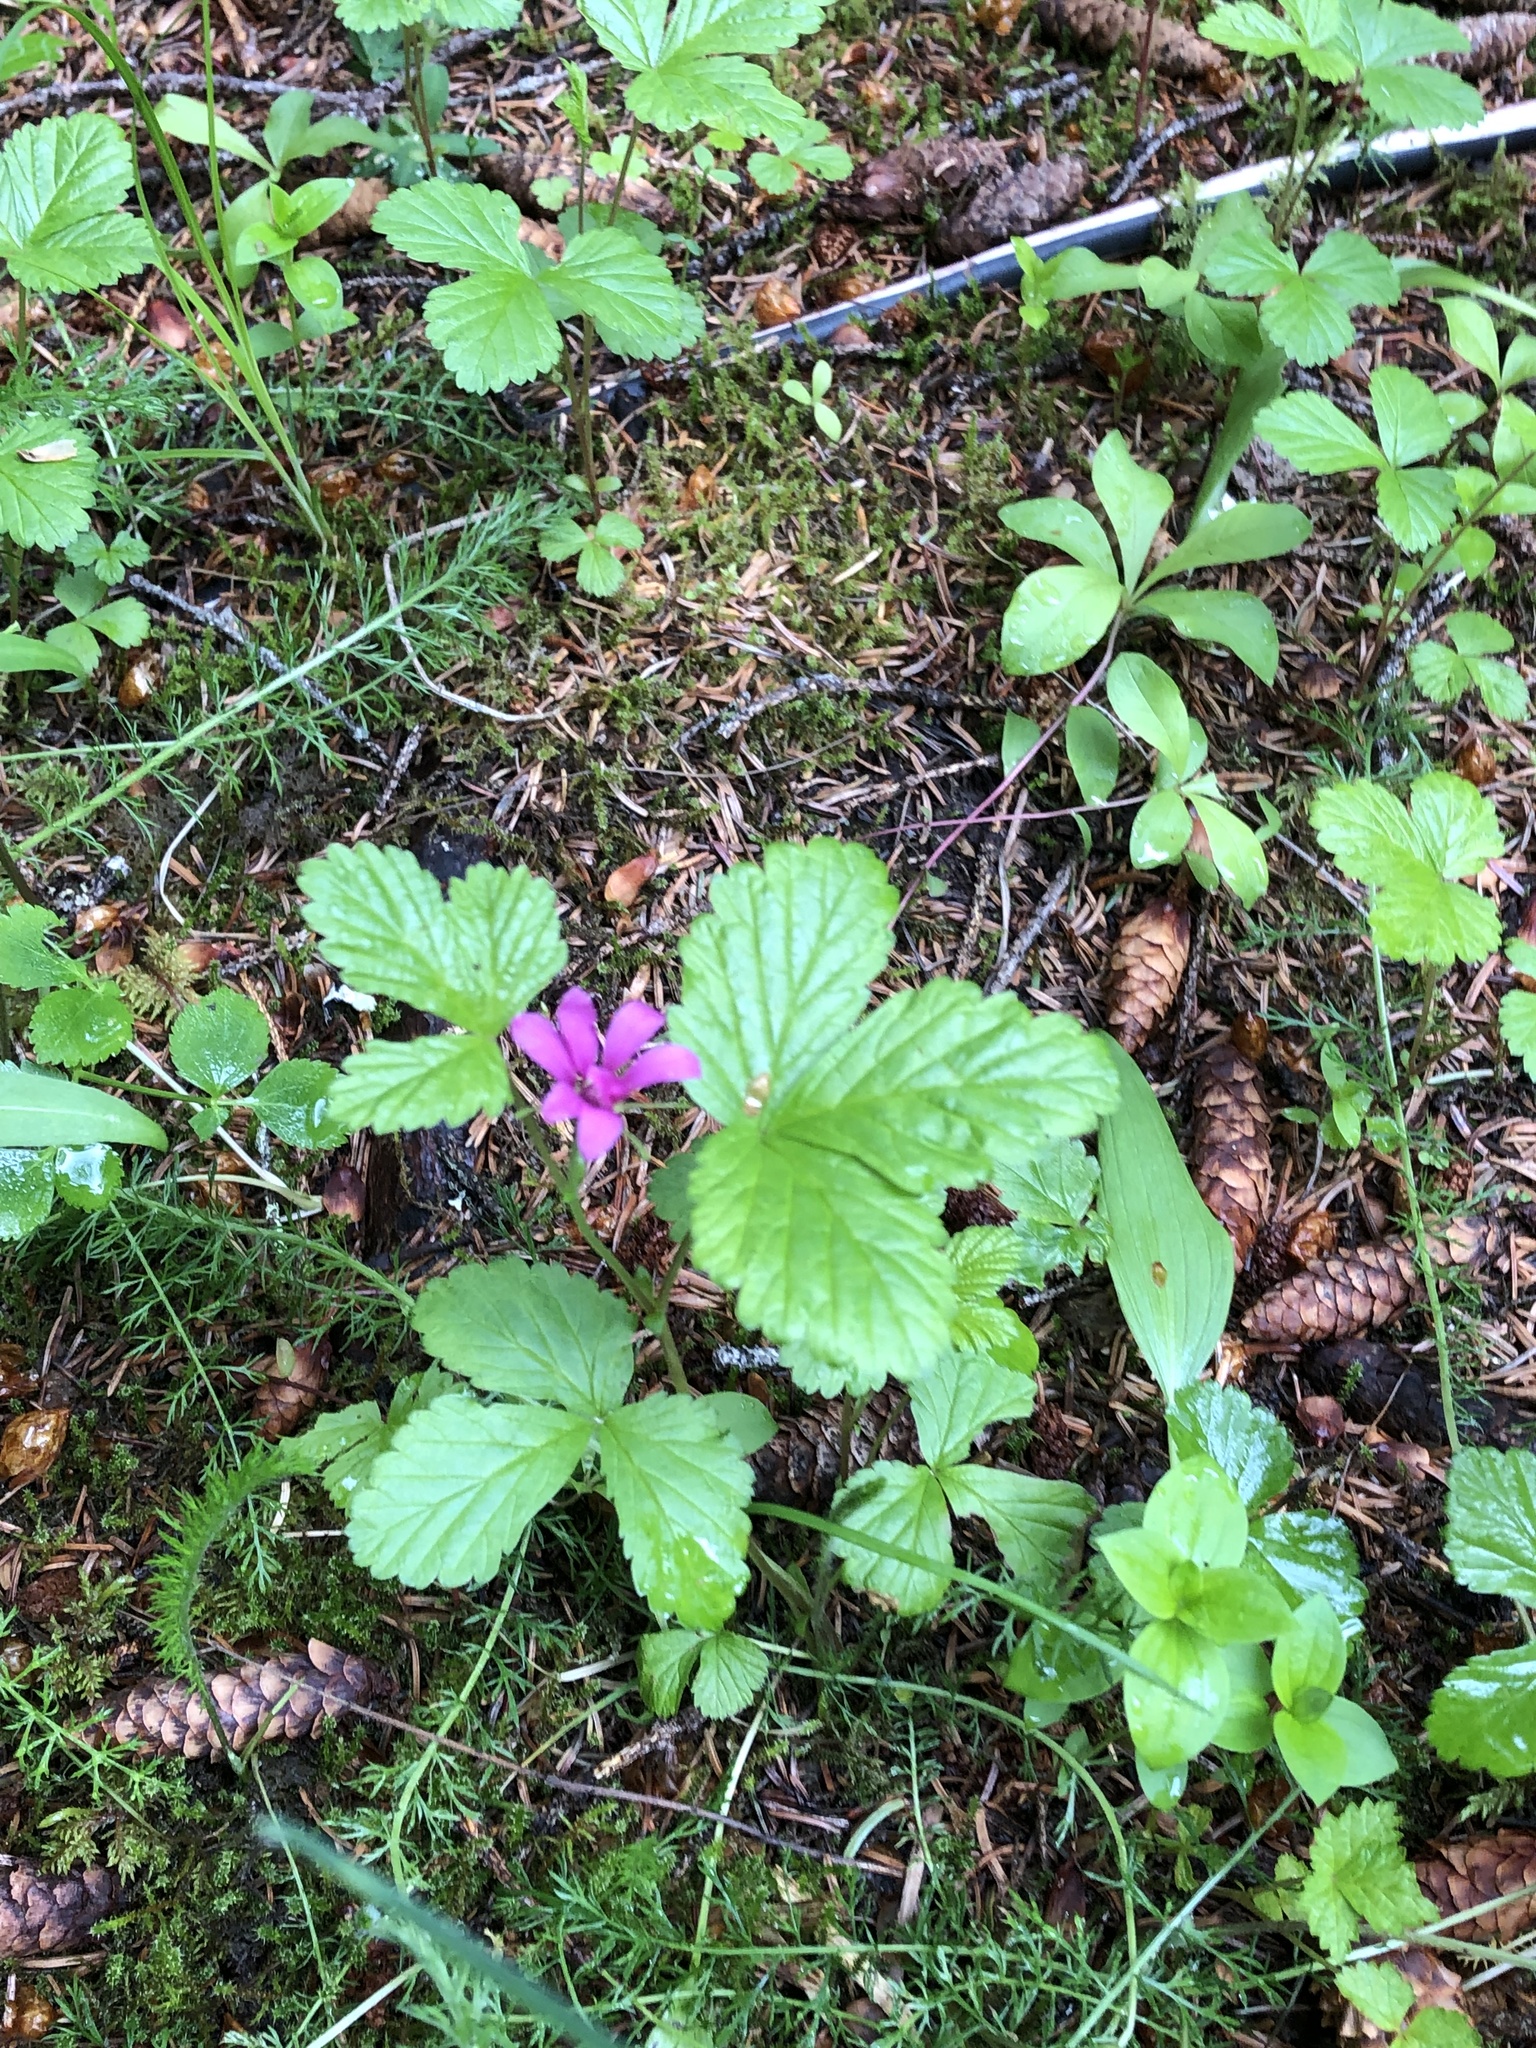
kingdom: Plantae
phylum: Tracheophyta
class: Magnoliopsida
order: Rosales
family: Rosaceae
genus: Rubus
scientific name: Rubus arcticus
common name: Arctic bramble
